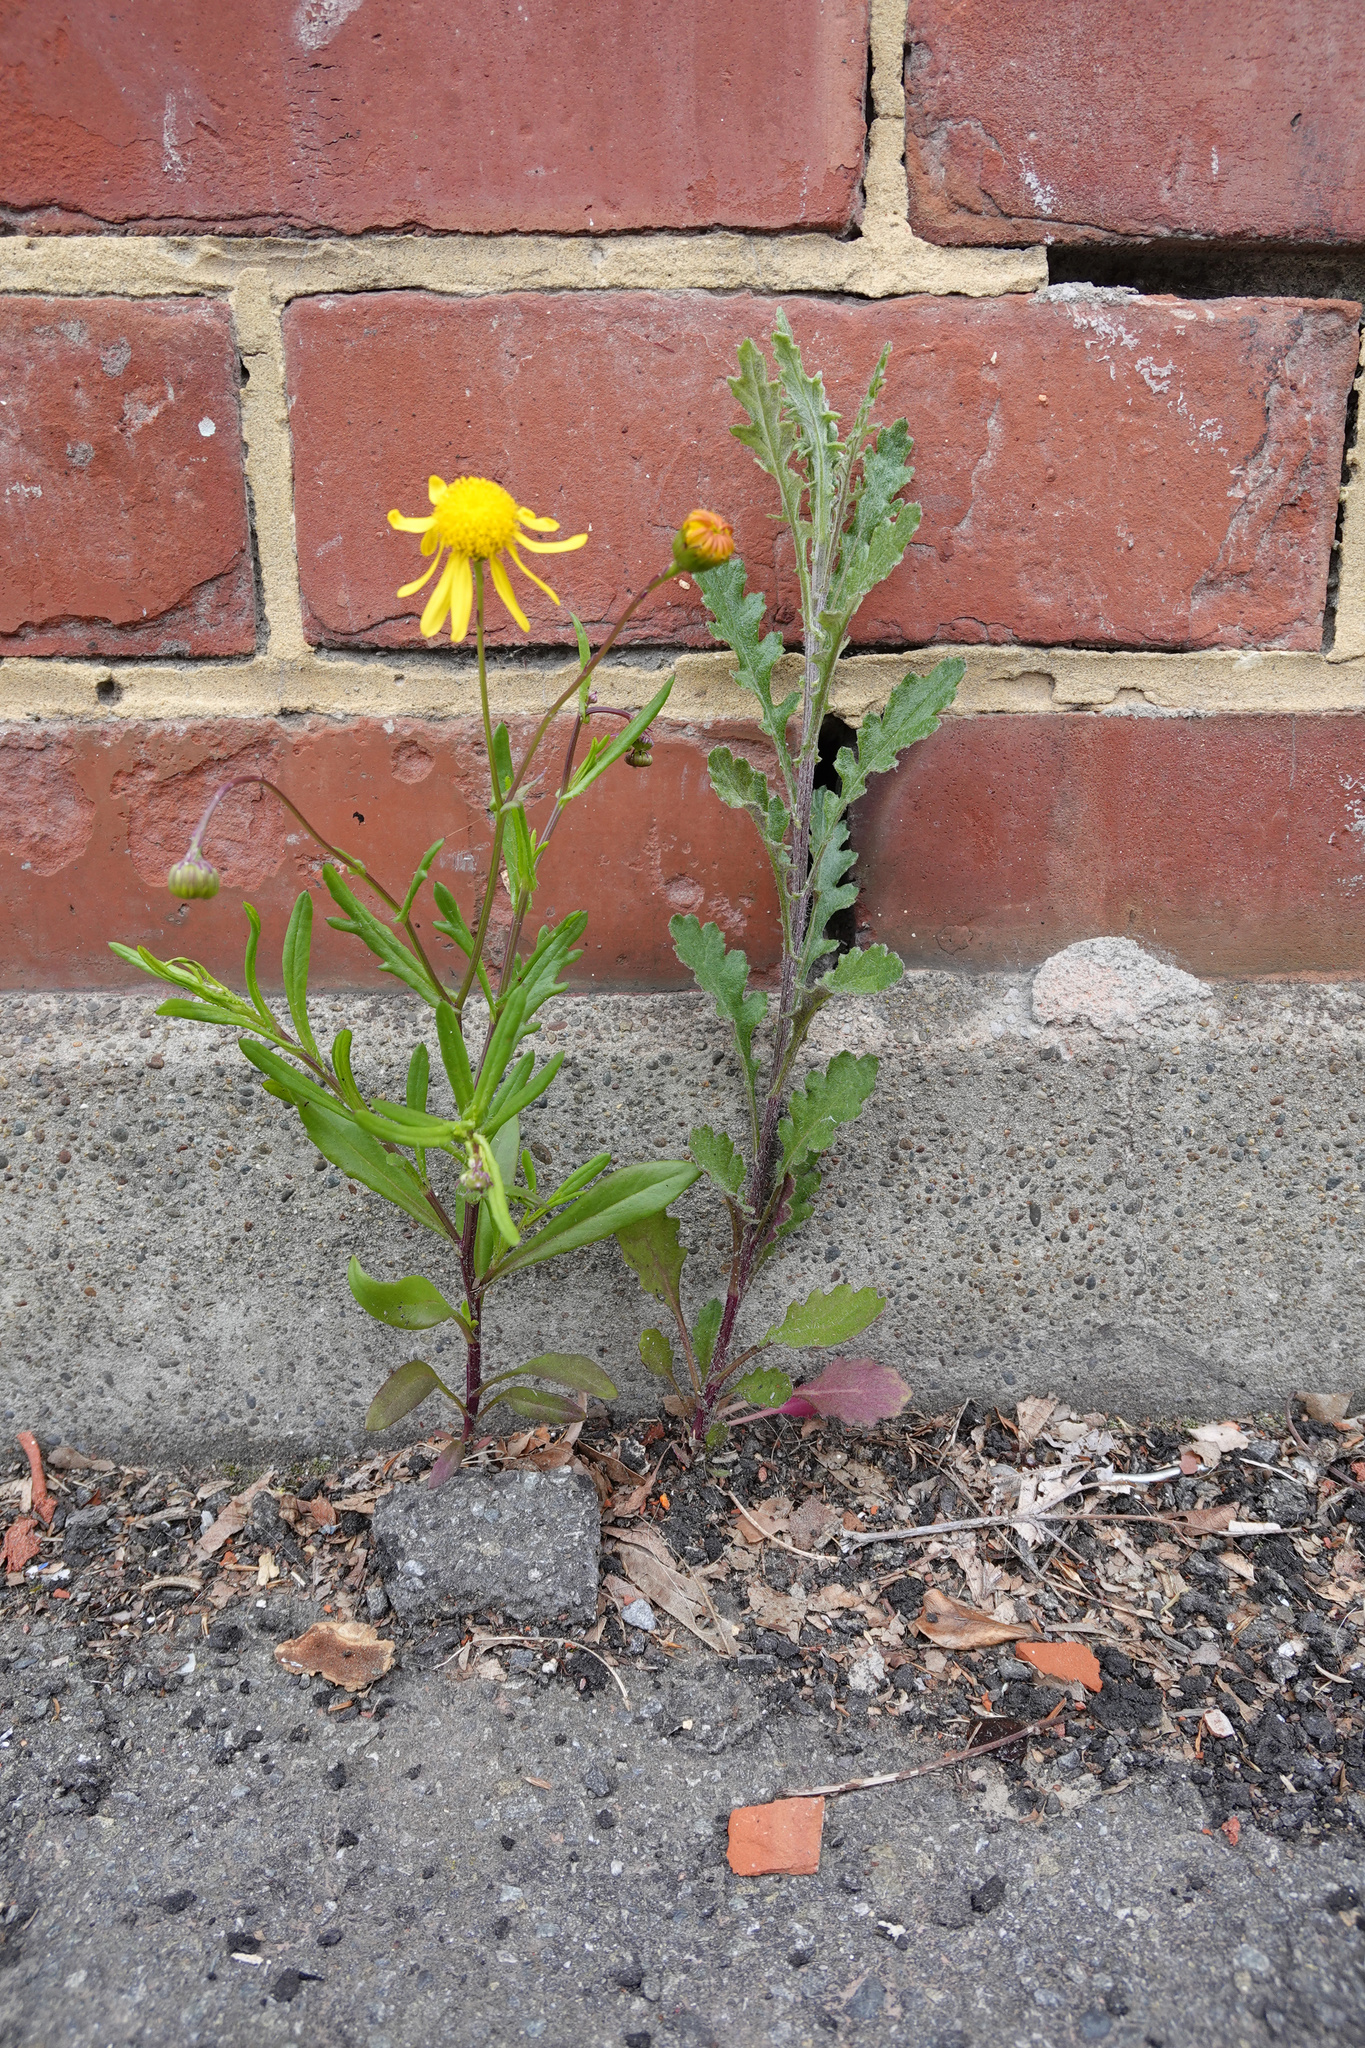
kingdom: Plantae
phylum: Tracheophyta
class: Magnoliopsida
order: Asterales
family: Asteraceae
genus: Senecio
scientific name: Senecio glomeratus
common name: Cutleaf burnweed
